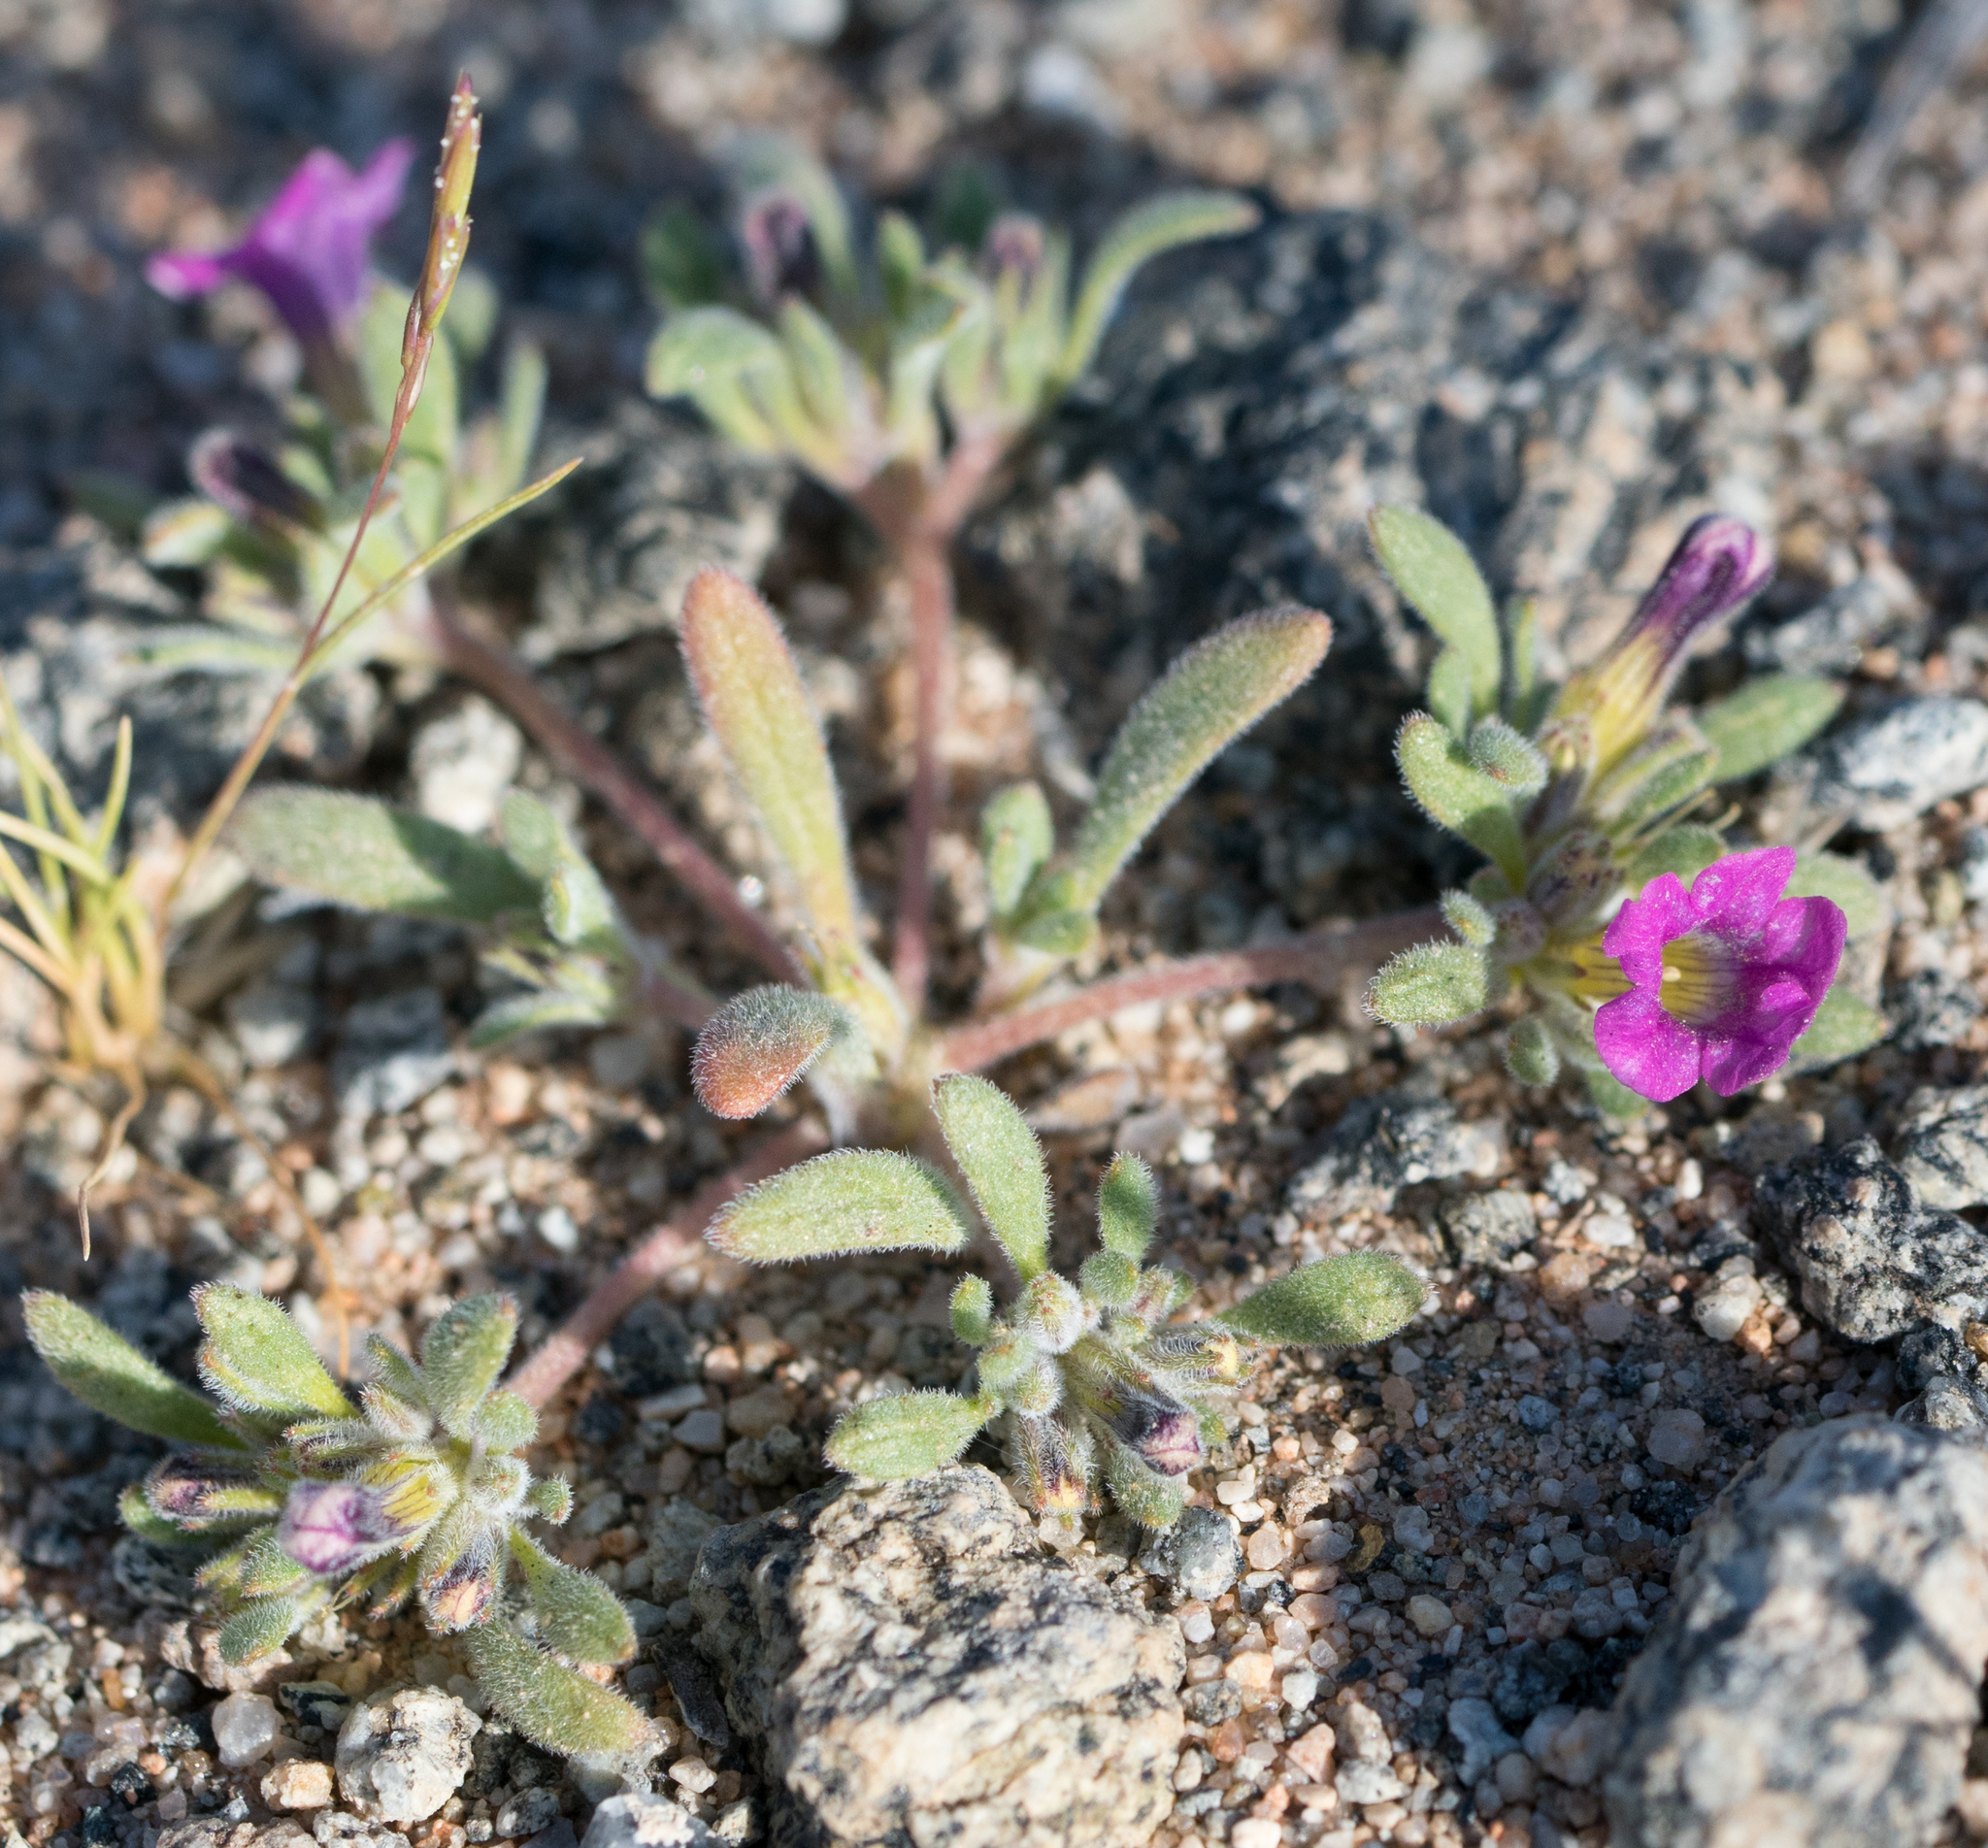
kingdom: Plantae
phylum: Tracheophyta
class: Magnoliopsida
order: Boraginales
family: Namaceae
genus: Nama
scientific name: Nama demissa
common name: Leafy nama
